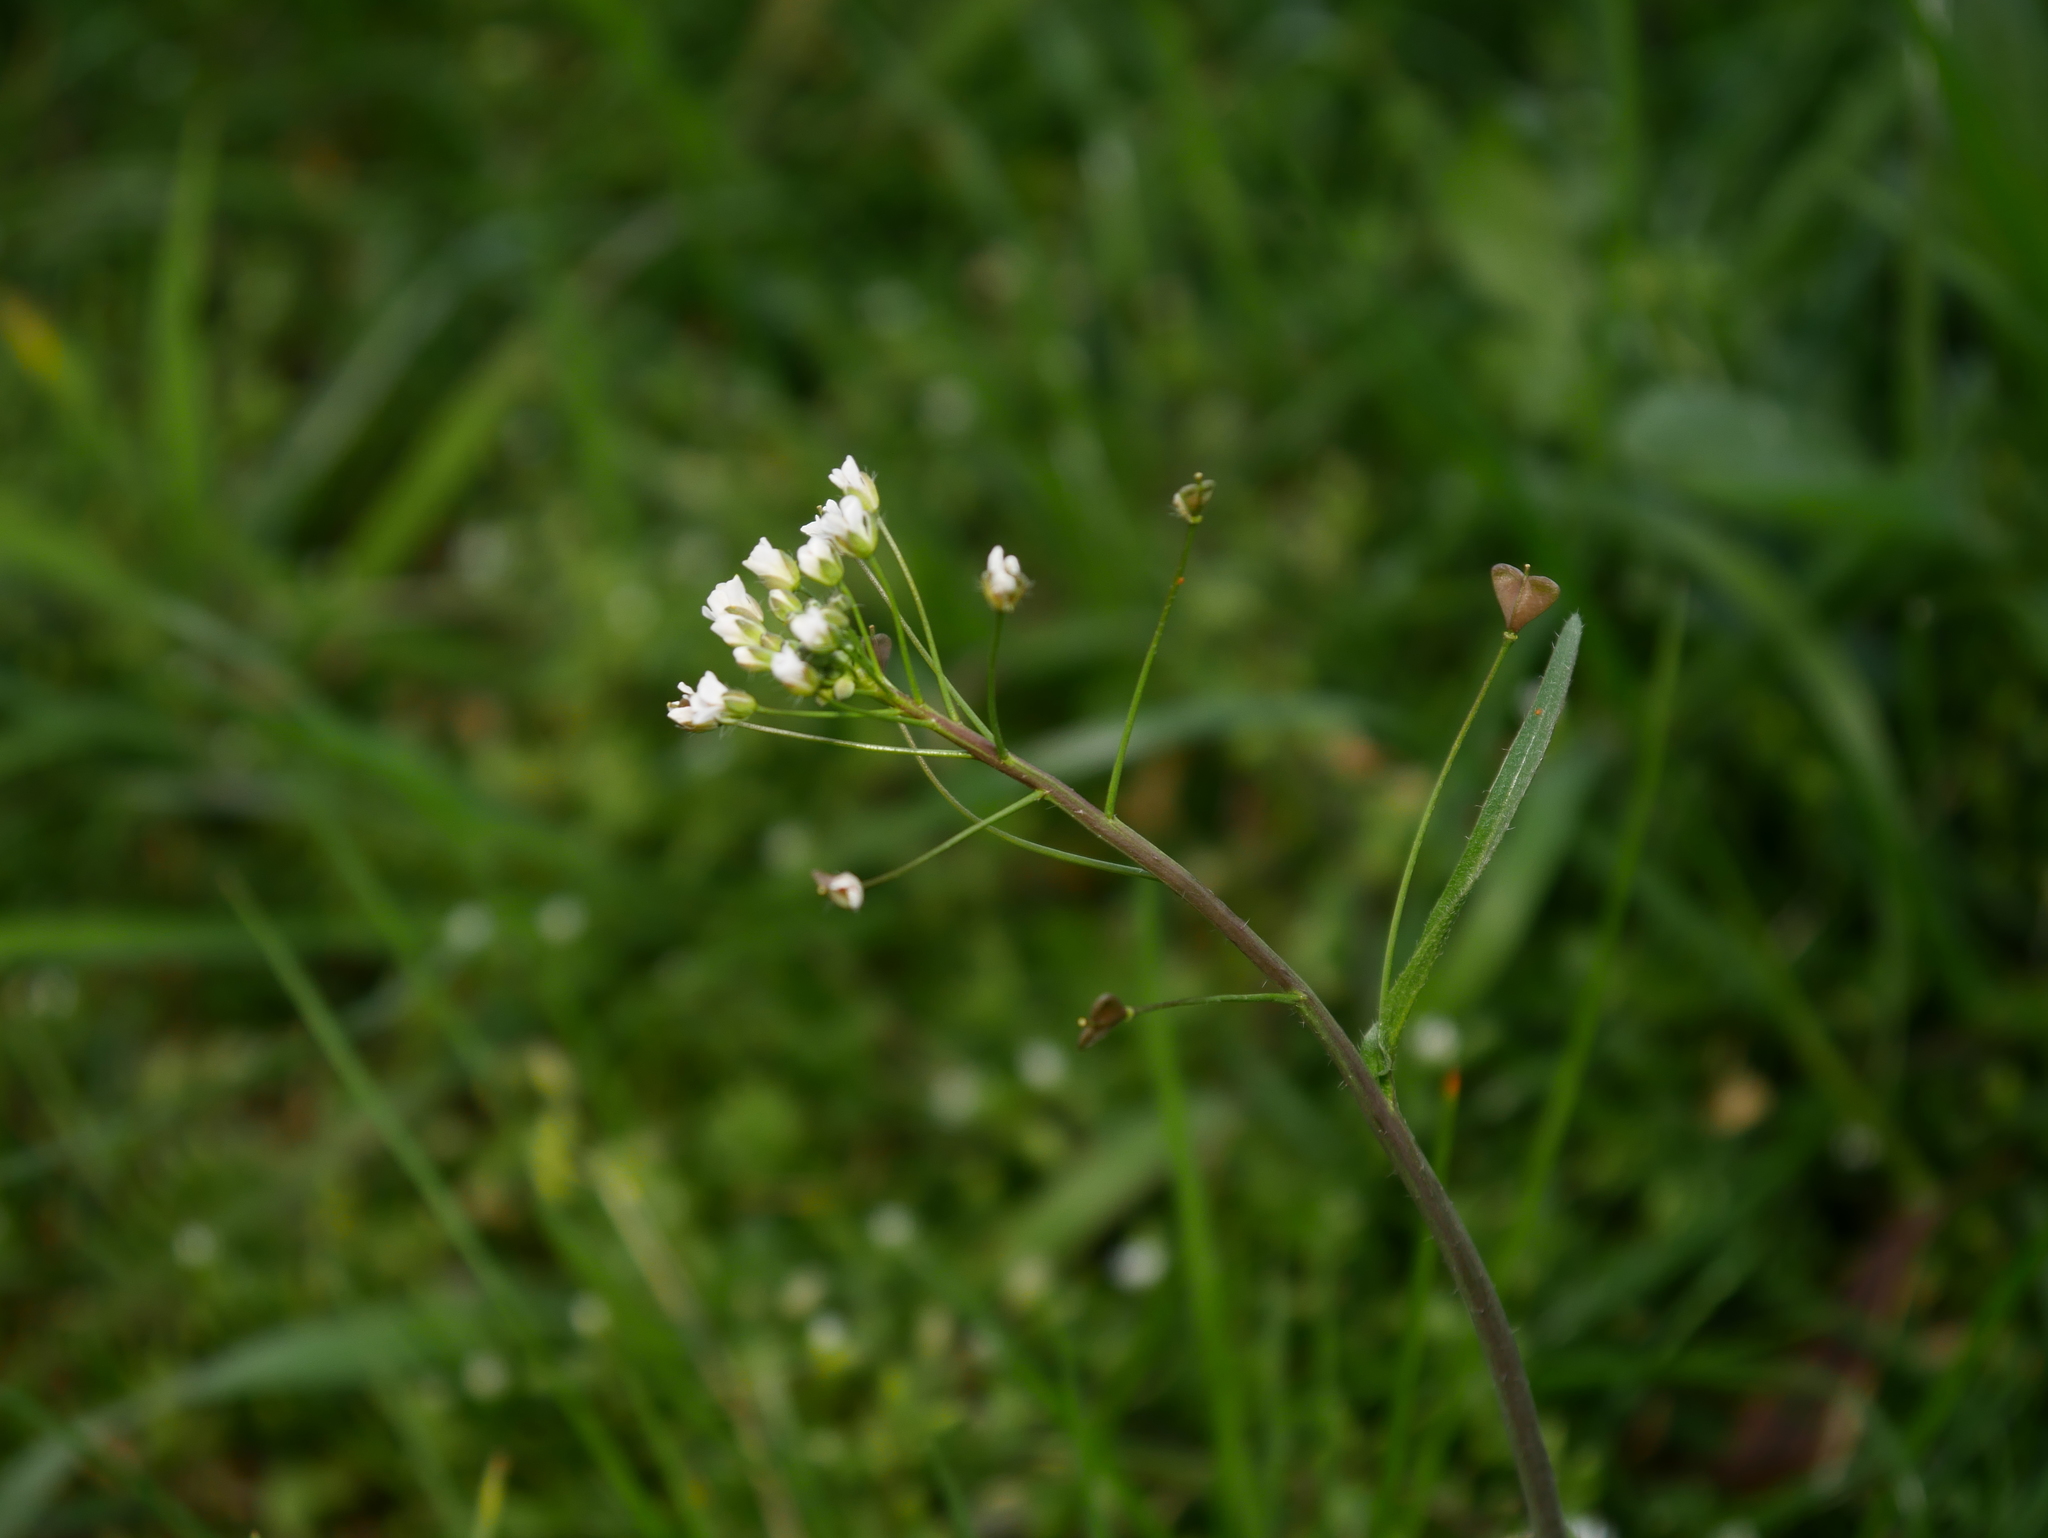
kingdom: Plantae
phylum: Tracheophyta
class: Magnoliopsida
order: Brassicales
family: Brassicaceae
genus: Capsella
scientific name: Capsella bursa-pastoris
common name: Shepherd's purse
